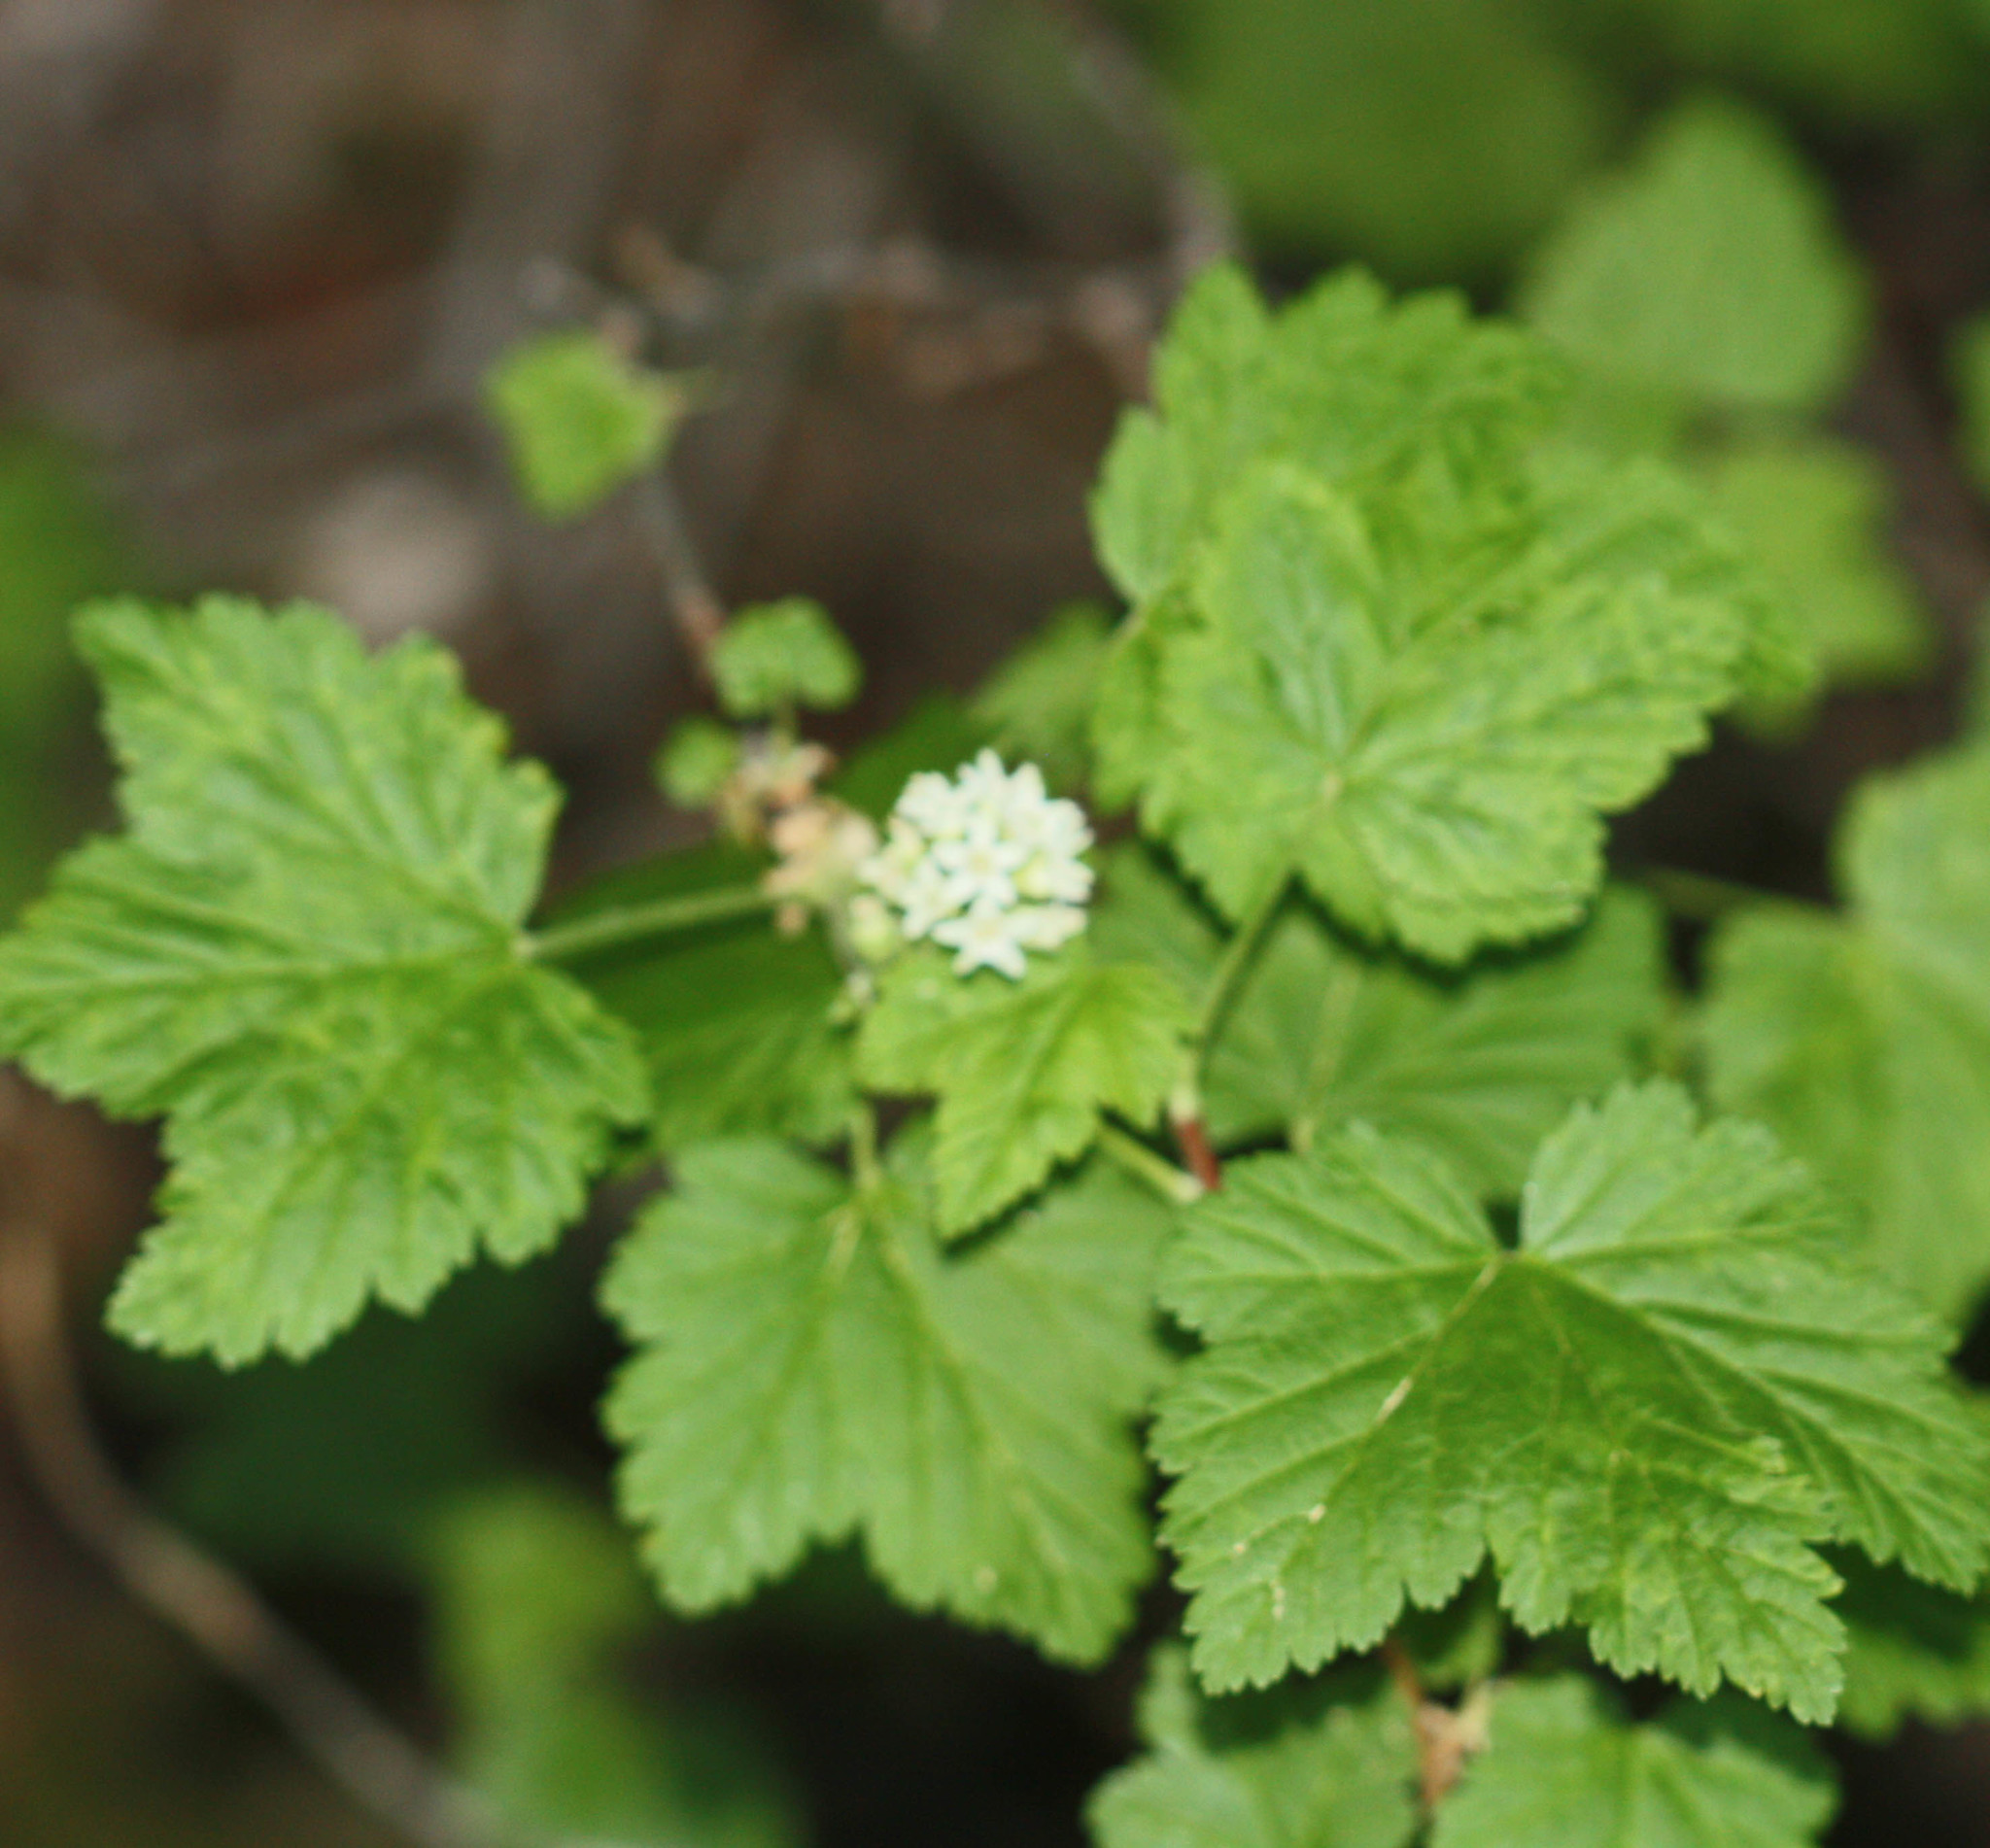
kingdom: Plantae
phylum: Tracheophyta
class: Magnoliopsida
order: Saxifragales
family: Grossulariaceae
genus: Ribes
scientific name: Ribes wolfii
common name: Rothrock currant
